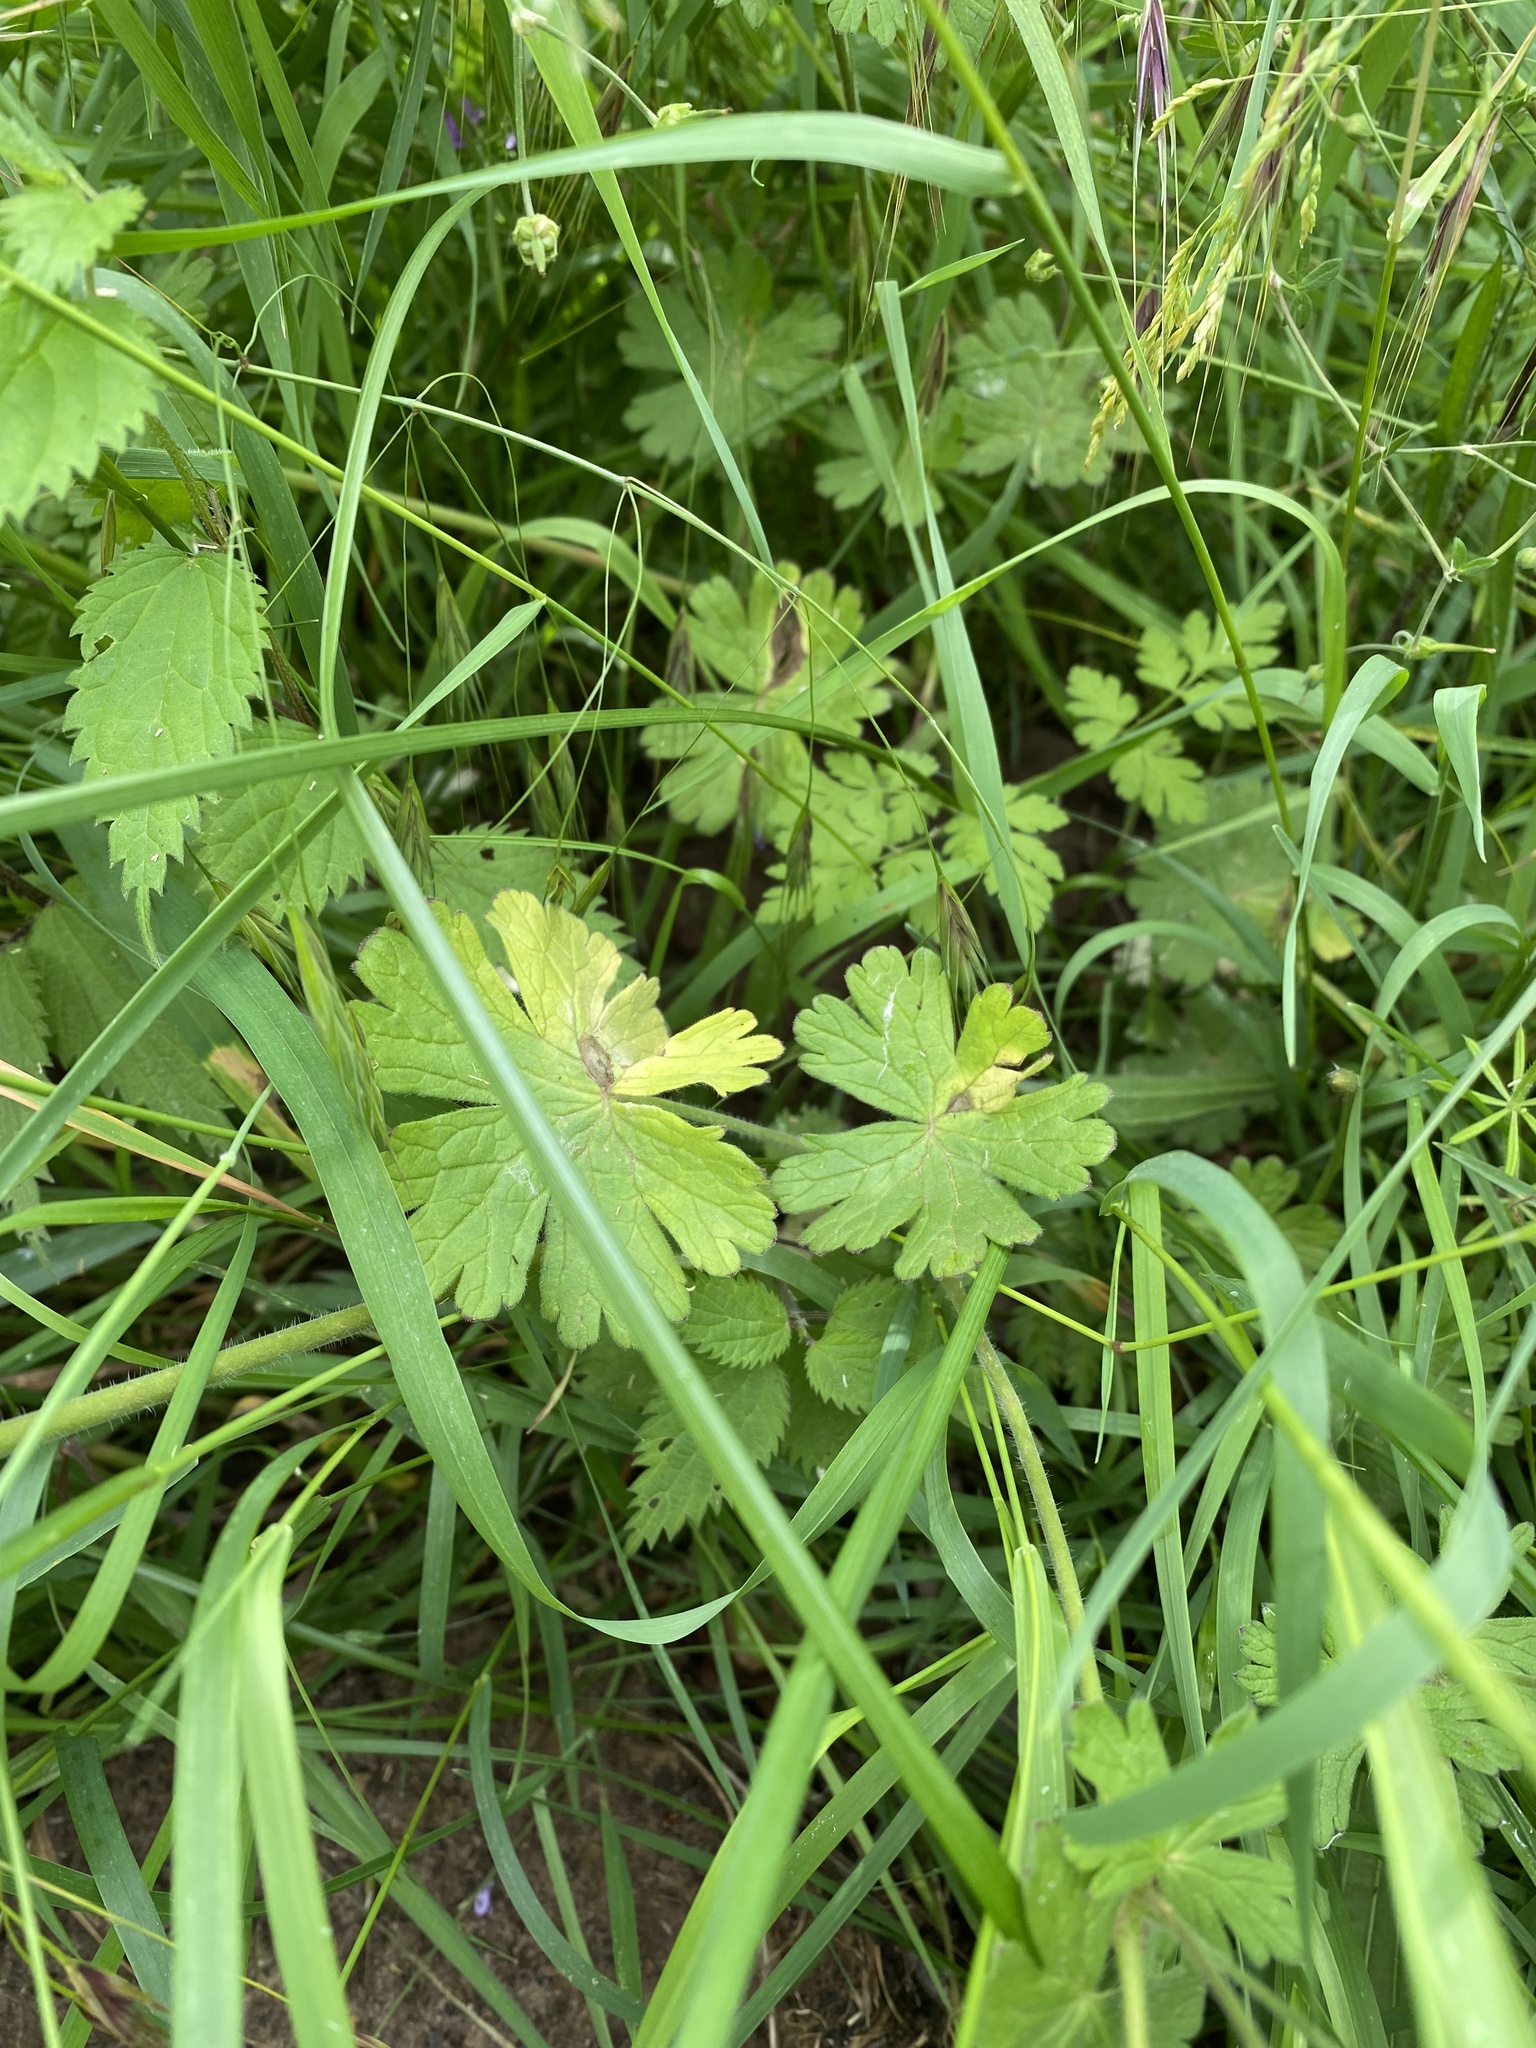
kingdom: Plantae
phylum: Tracheophyta
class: Magnoliopsida
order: Geraniales
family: Geraniaceae
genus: Geranium
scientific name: Geranium pyrenaicum
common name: Hedgerow crane's-bill
